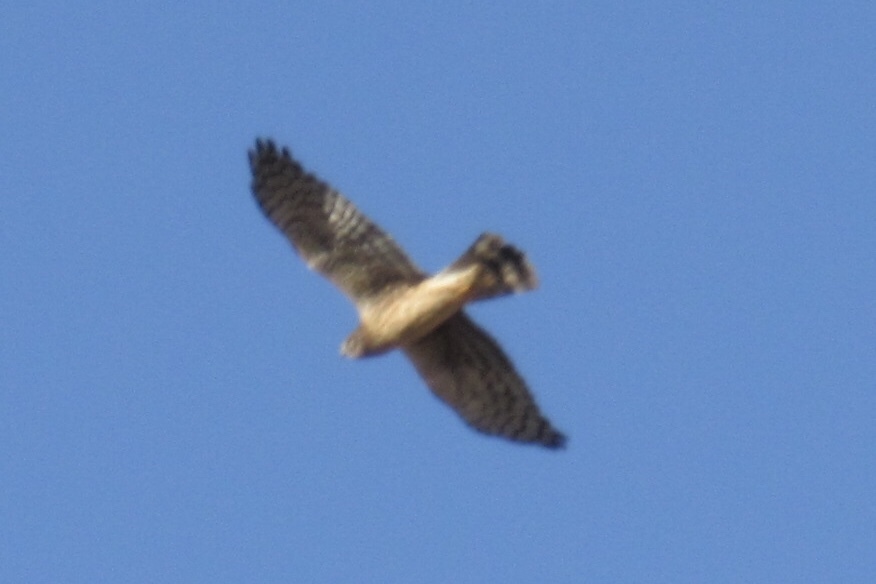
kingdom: Animalia
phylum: Chordata
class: Aves
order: Accipitriformes
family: Accipitridae
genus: Circus
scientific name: Circus cyaneus
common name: Hen harrier
